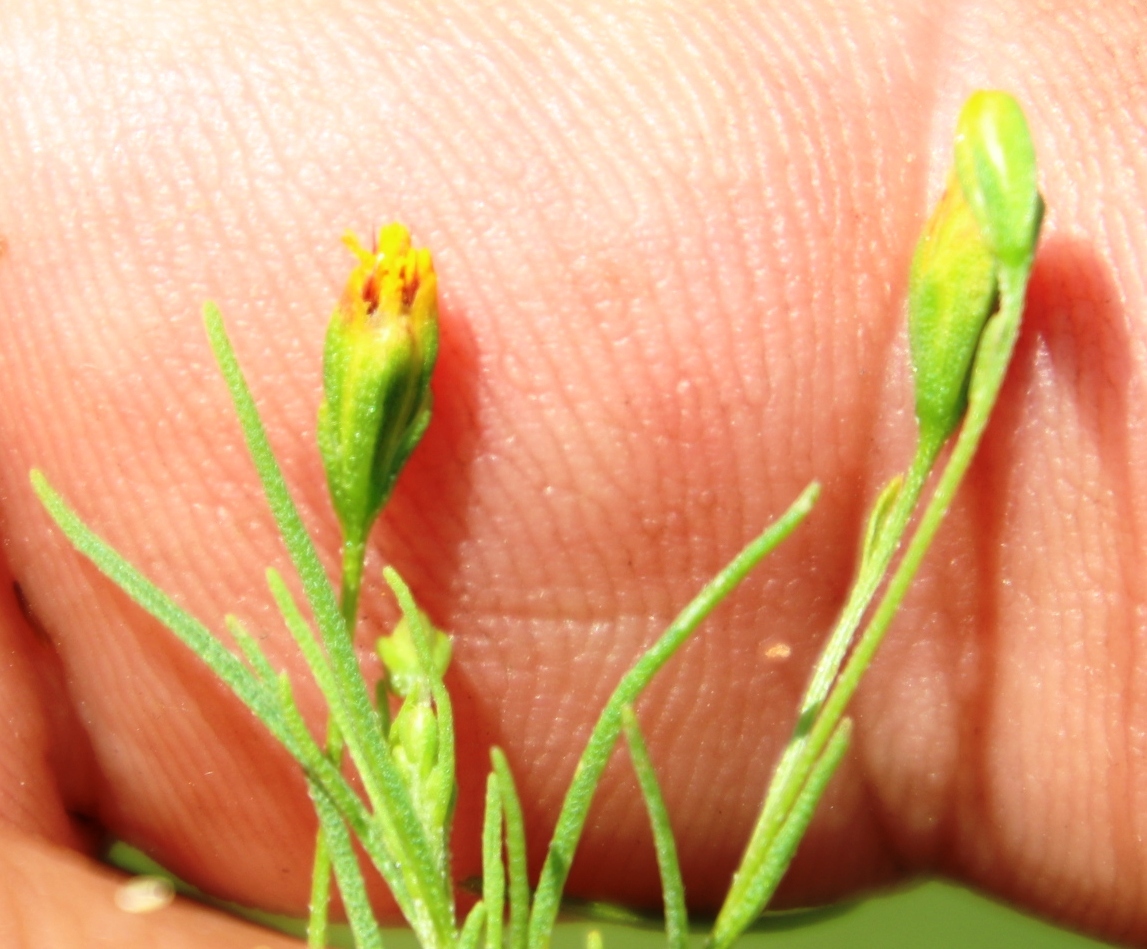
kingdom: Plantae
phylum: Tracheophyta
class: Magnoliopsida
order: Asterales
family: Asteraceae
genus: Schkuhria
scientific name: Schkuhria pinnata
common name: Dwarf marigold
